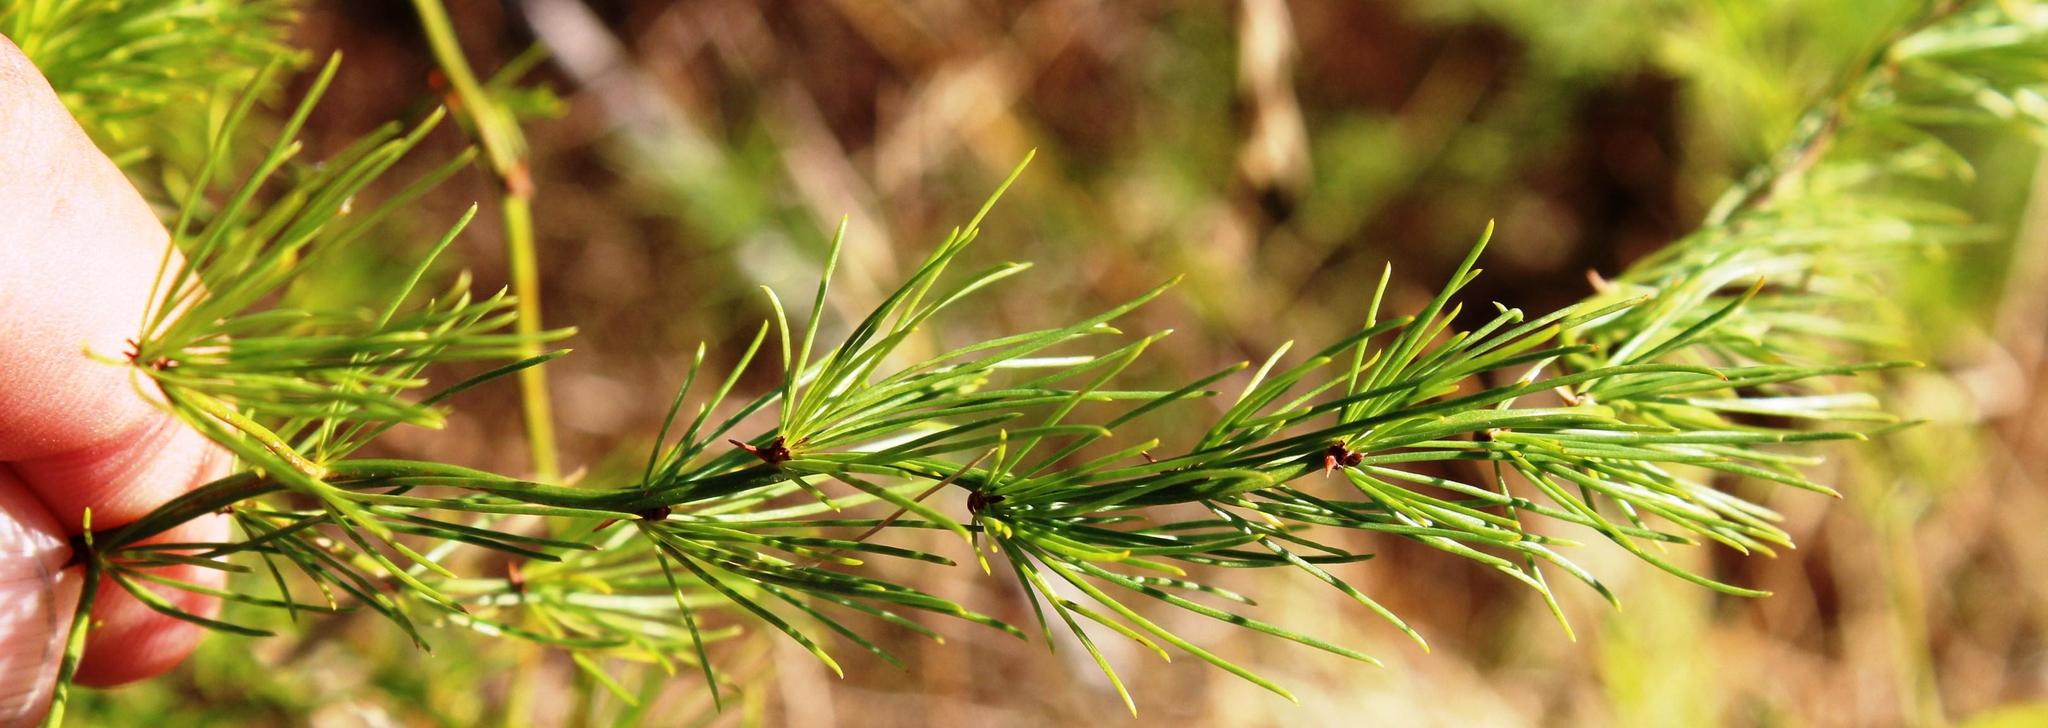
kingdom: Plantae
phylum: Tracheophyta
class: Liliopsida
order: Asparagales
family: Asparagaceae
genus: Asparagus
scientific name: Asparagus fasciculatus
